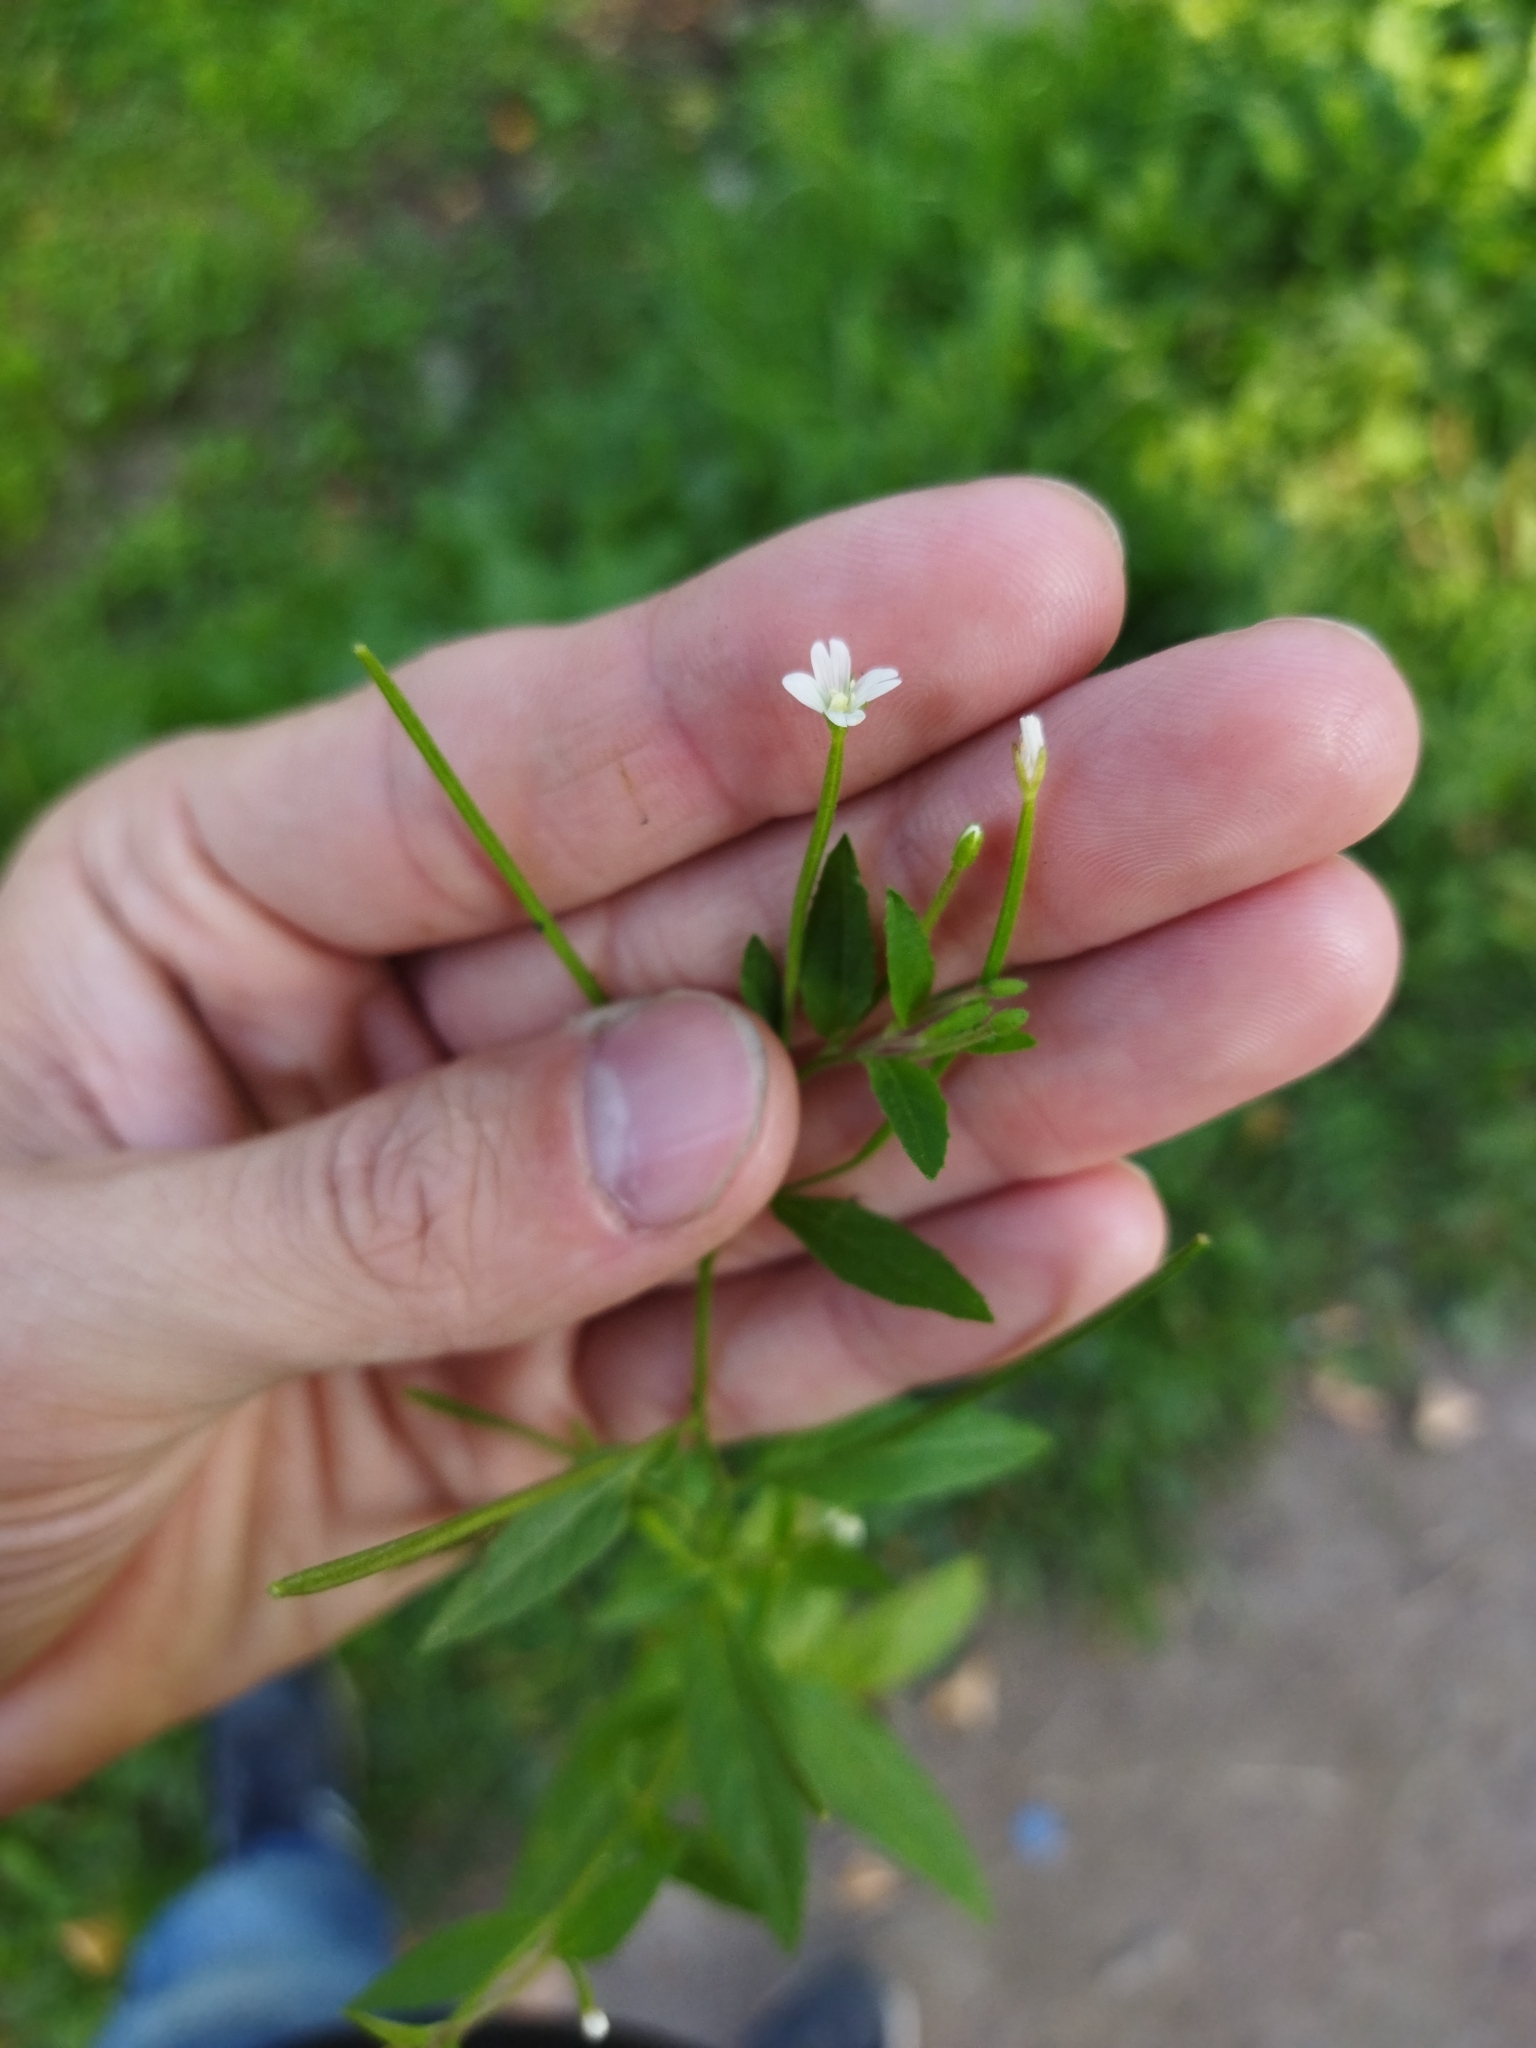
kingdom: Plantae
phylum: Tracheophyta
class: Magnoliopsida
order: Myrtales
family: Onagraceae
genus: Epilobium
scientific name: Epilobium pseudorubescens
